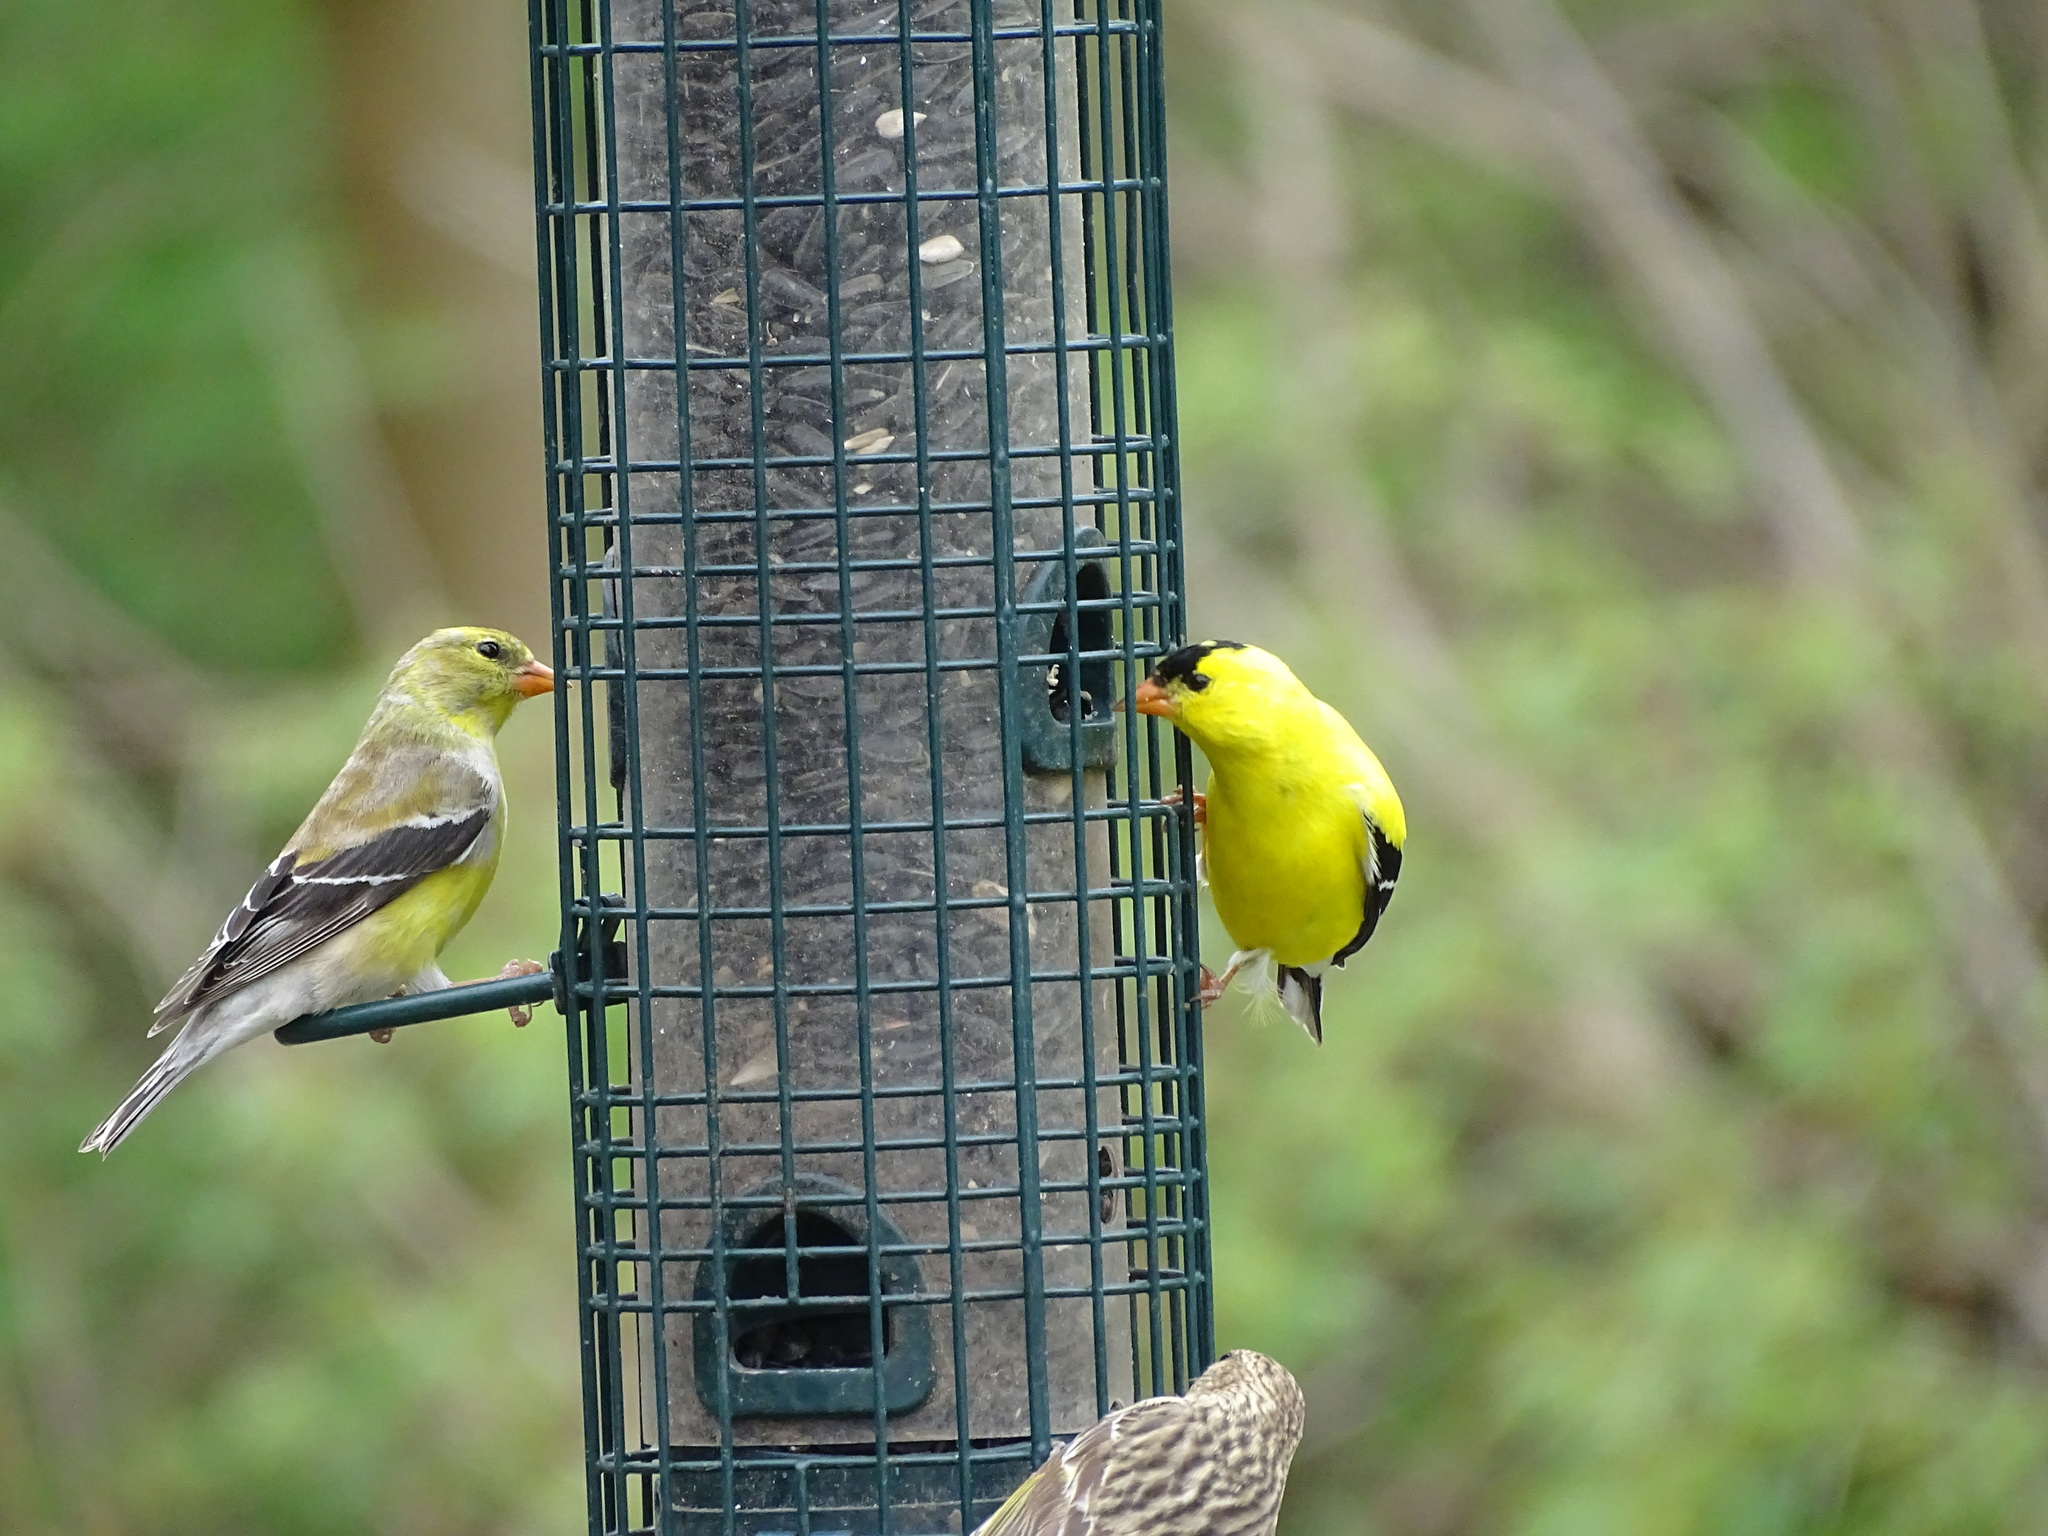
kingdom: Animalia
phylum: Chordata
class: Aves
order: Passeriformes
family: Fringillidae
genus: Spinus
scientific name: Spinus tristis
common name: American goldfinch
